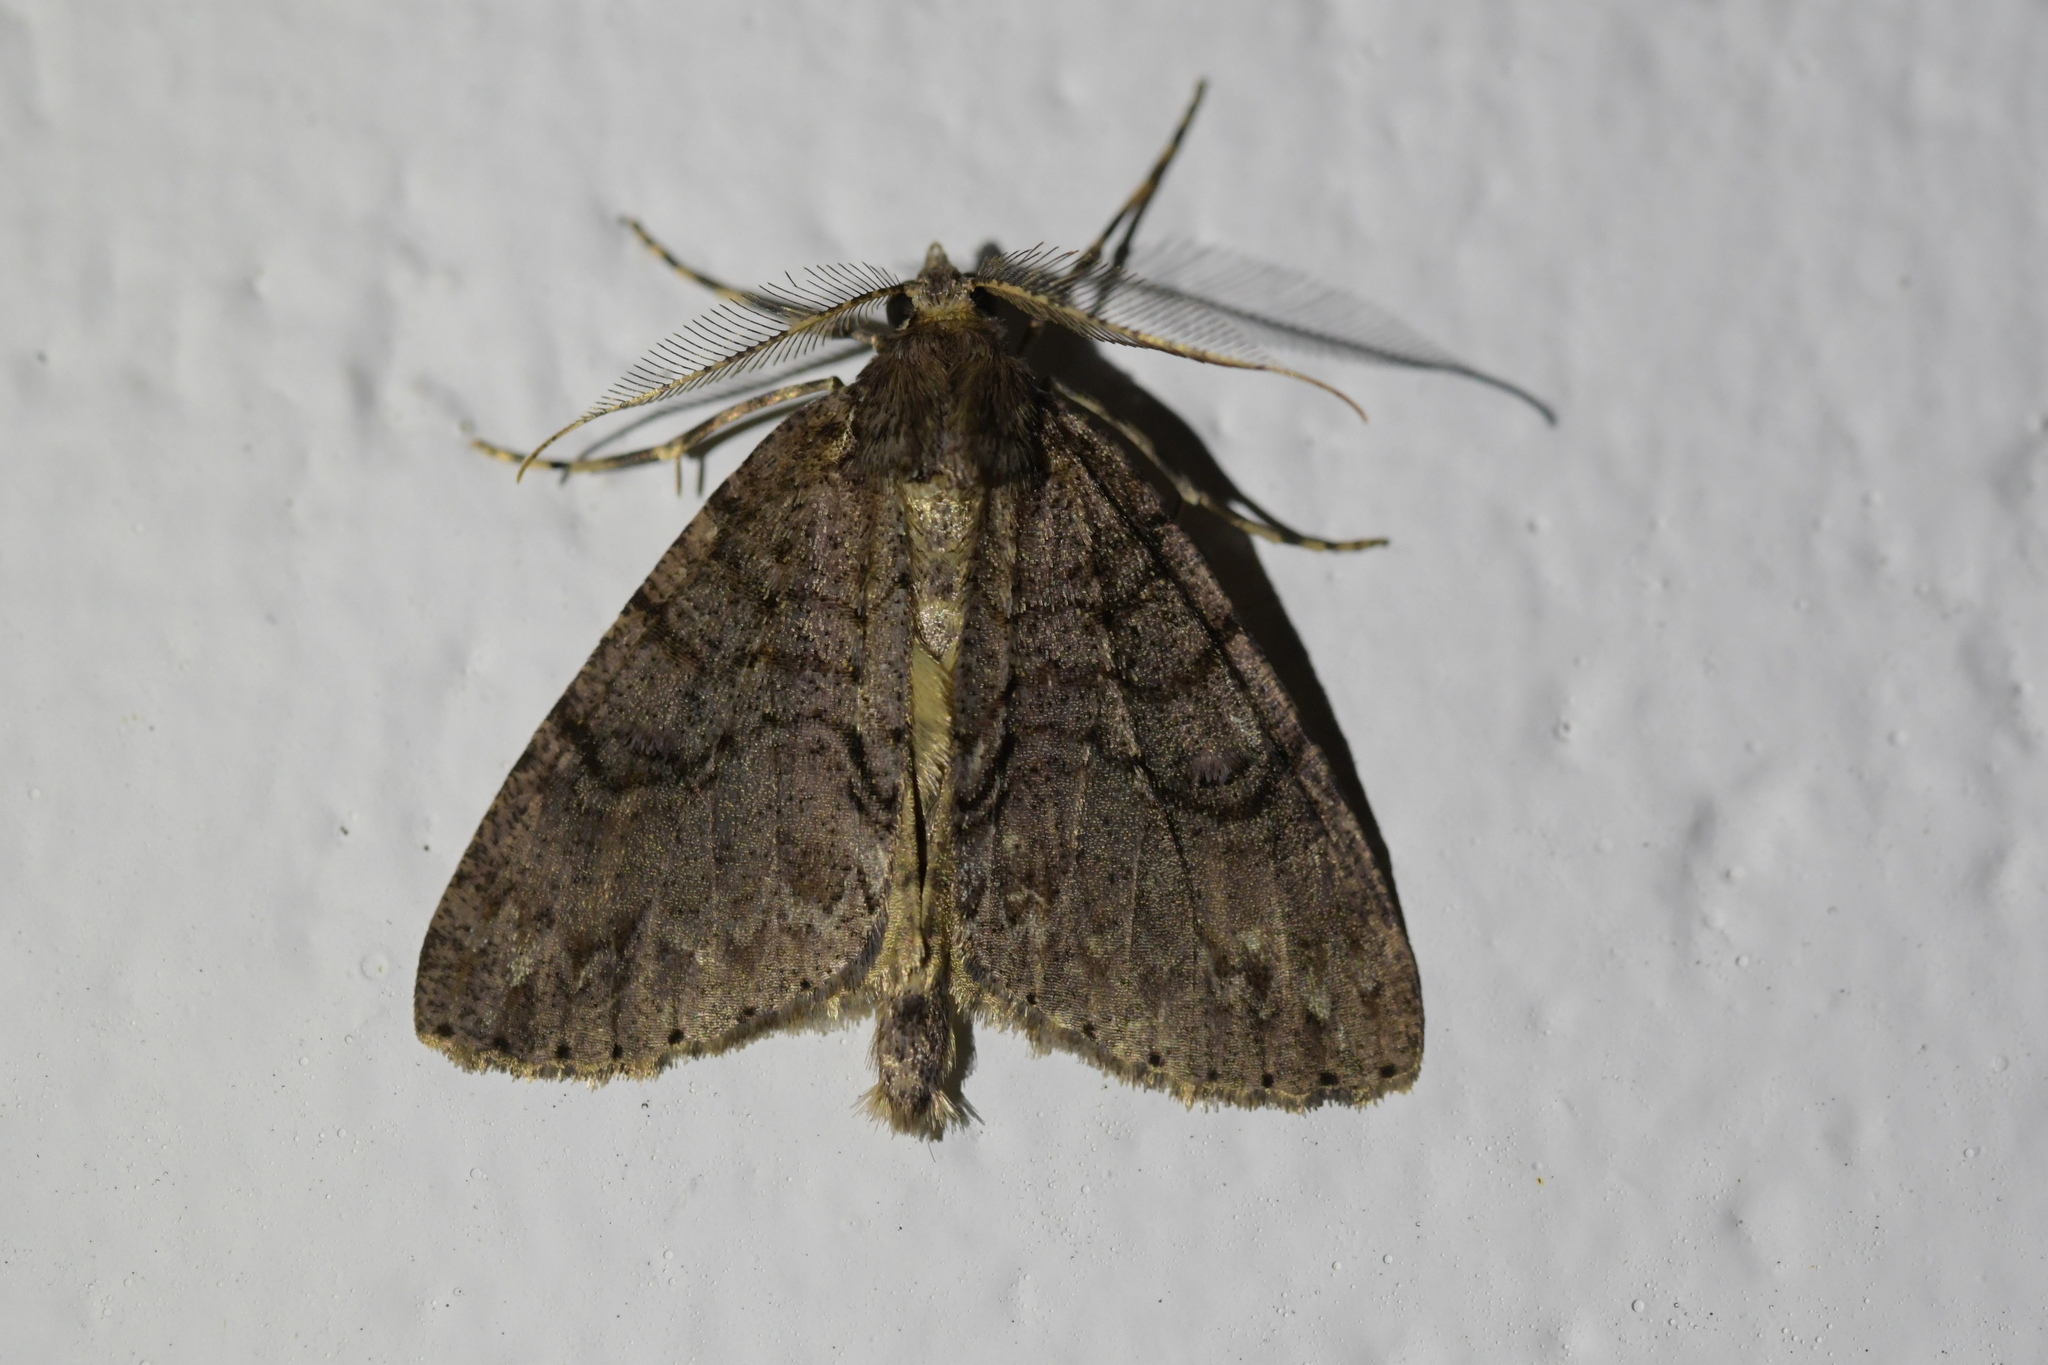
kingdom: Animalia
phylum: Arthropoda
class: Insecta
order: Lepidoptera
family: Geometridae
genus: Pseudocoremia
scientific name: Pseudocoremia suavis
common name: Common forest looper
